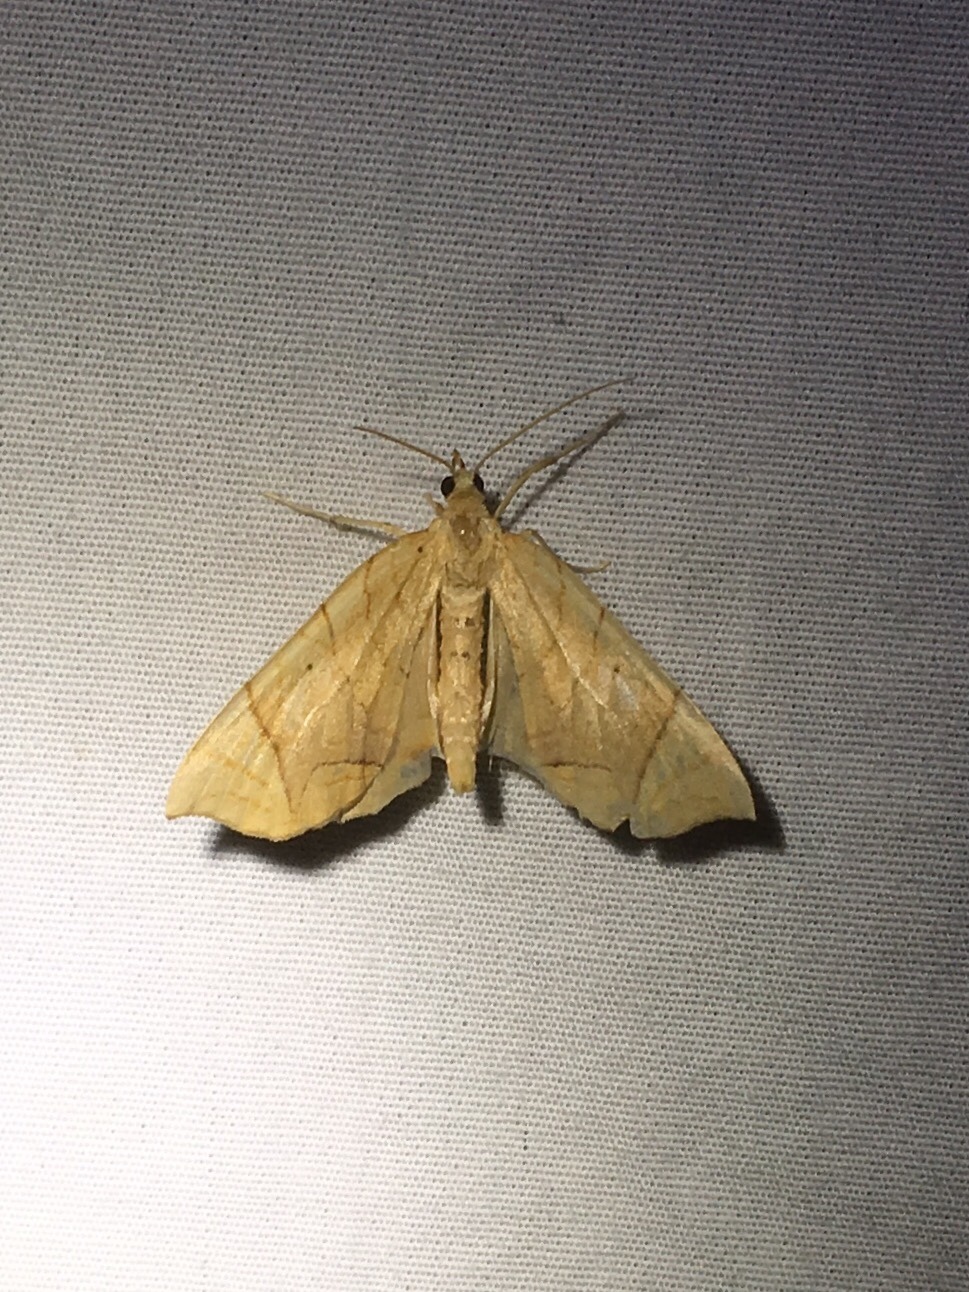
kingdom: Animalia
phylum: Arthropoda
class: Insecta
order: Lepidoptera
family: Geometridae
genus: Eulithis
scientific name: Eulithis
